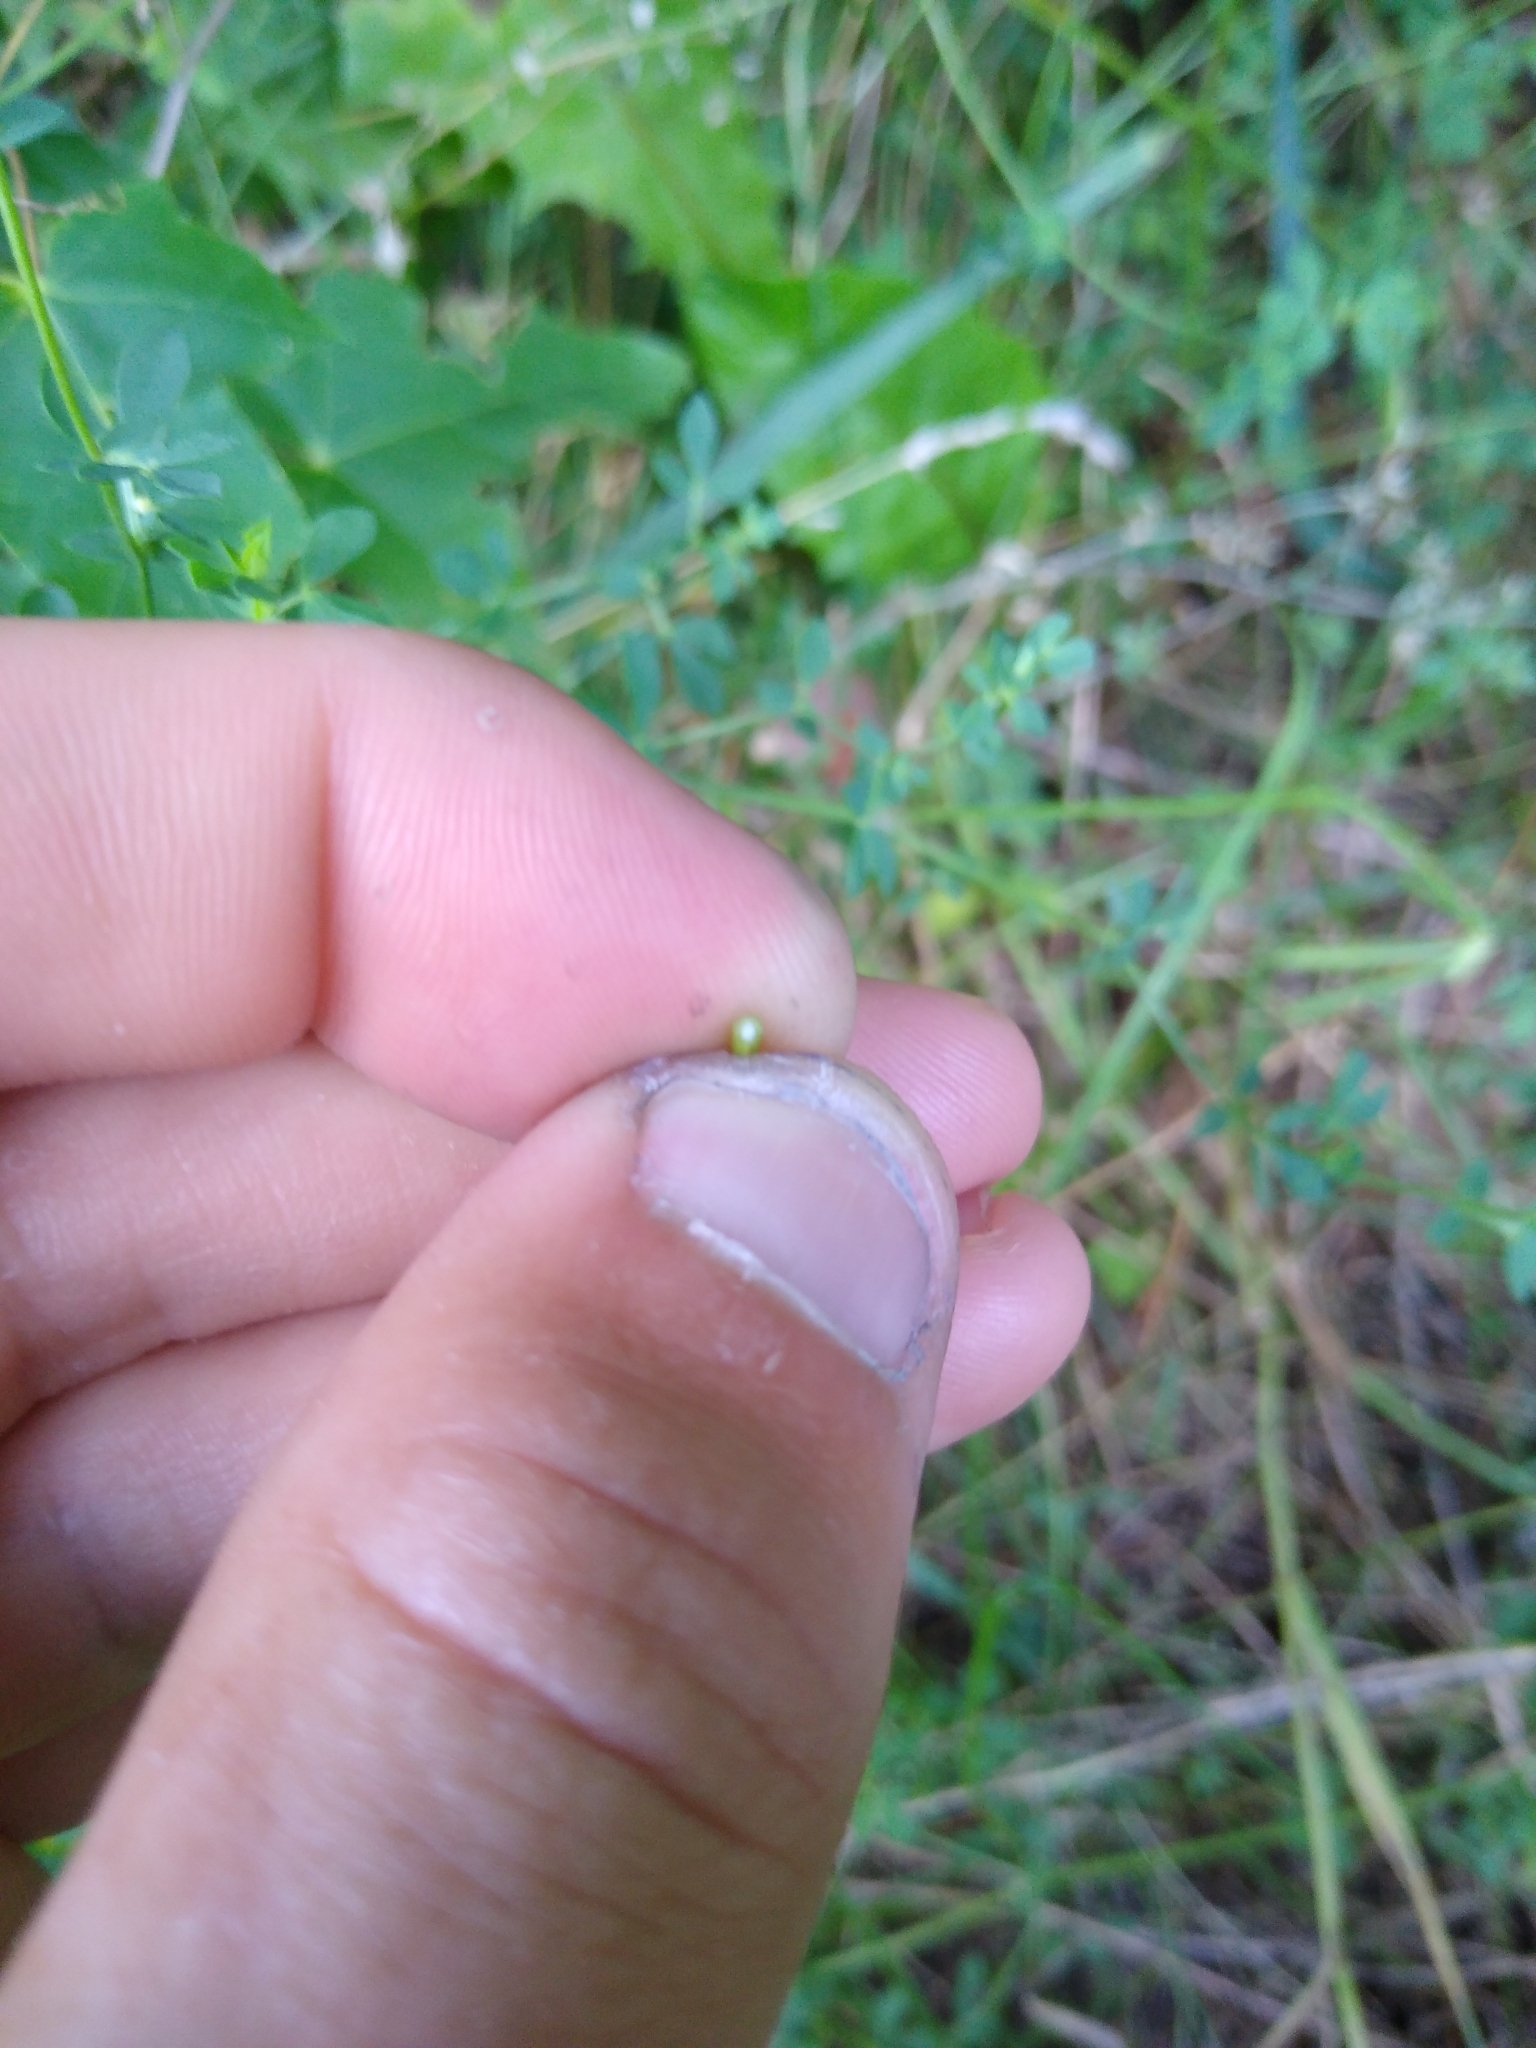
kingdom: Plantae
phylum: Tracheophyta
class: Magnoliopsida
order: Sapindales
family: Sapindaceae
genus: Acer
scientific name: Acer platanoides
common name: Norway maple
